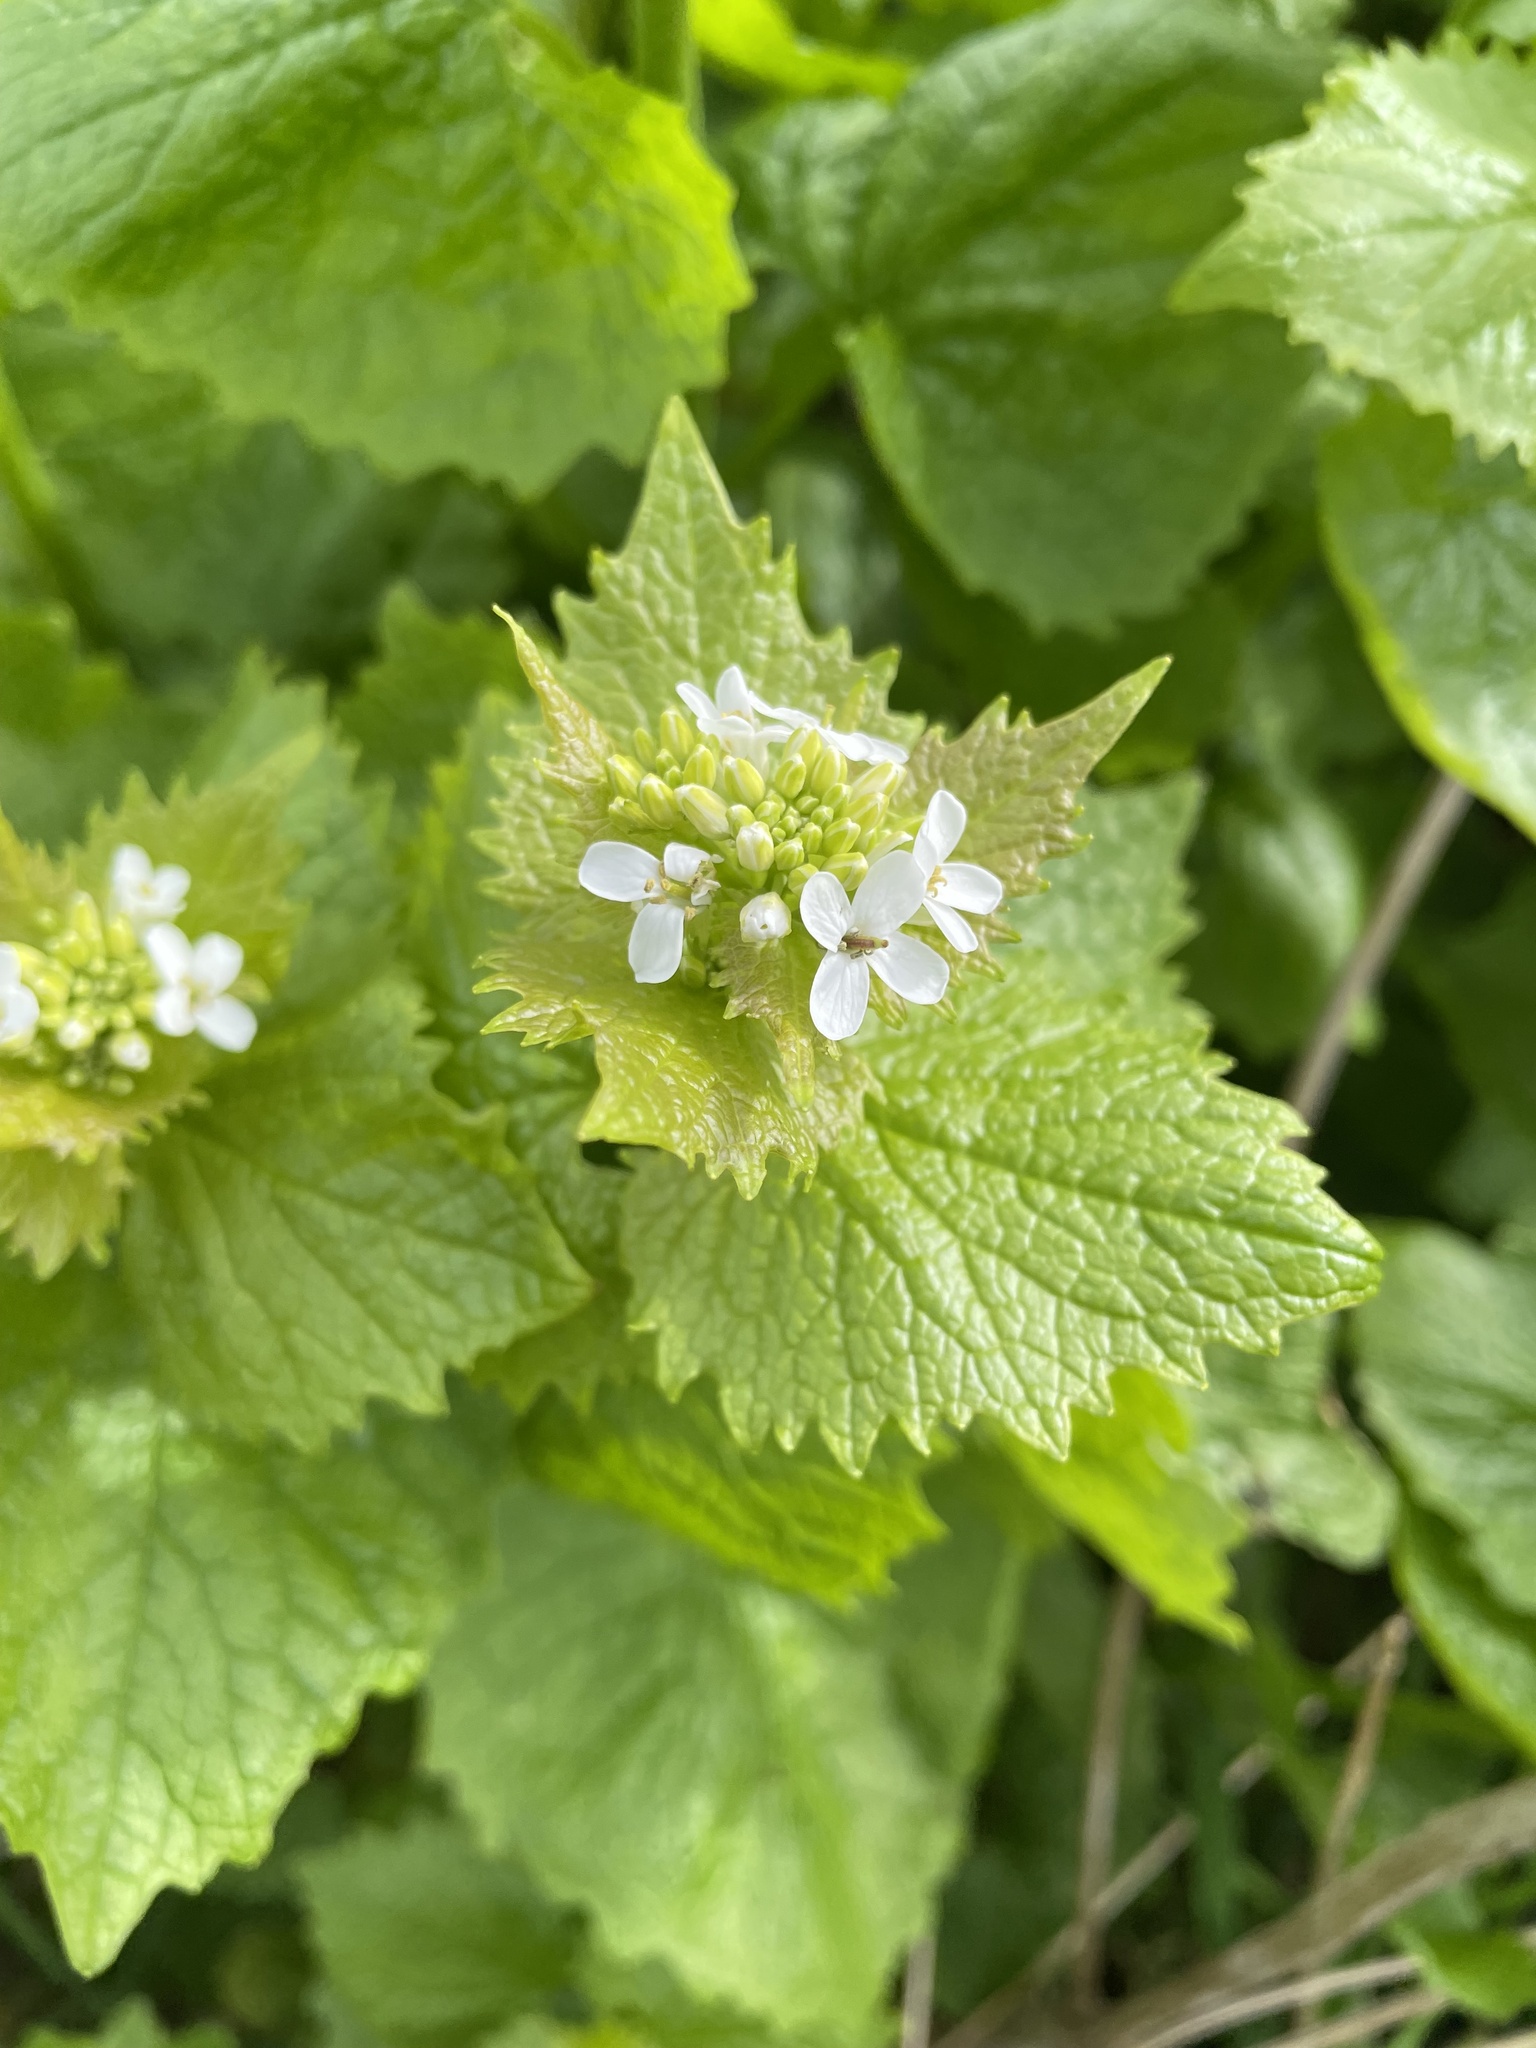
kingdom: Plantae
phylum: Tracheophyta
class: Magnoliopsida
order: Brassicales
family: Brassicaceae
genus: Alliaria
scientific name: Alliaria petiolata
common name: Garlic mustard
